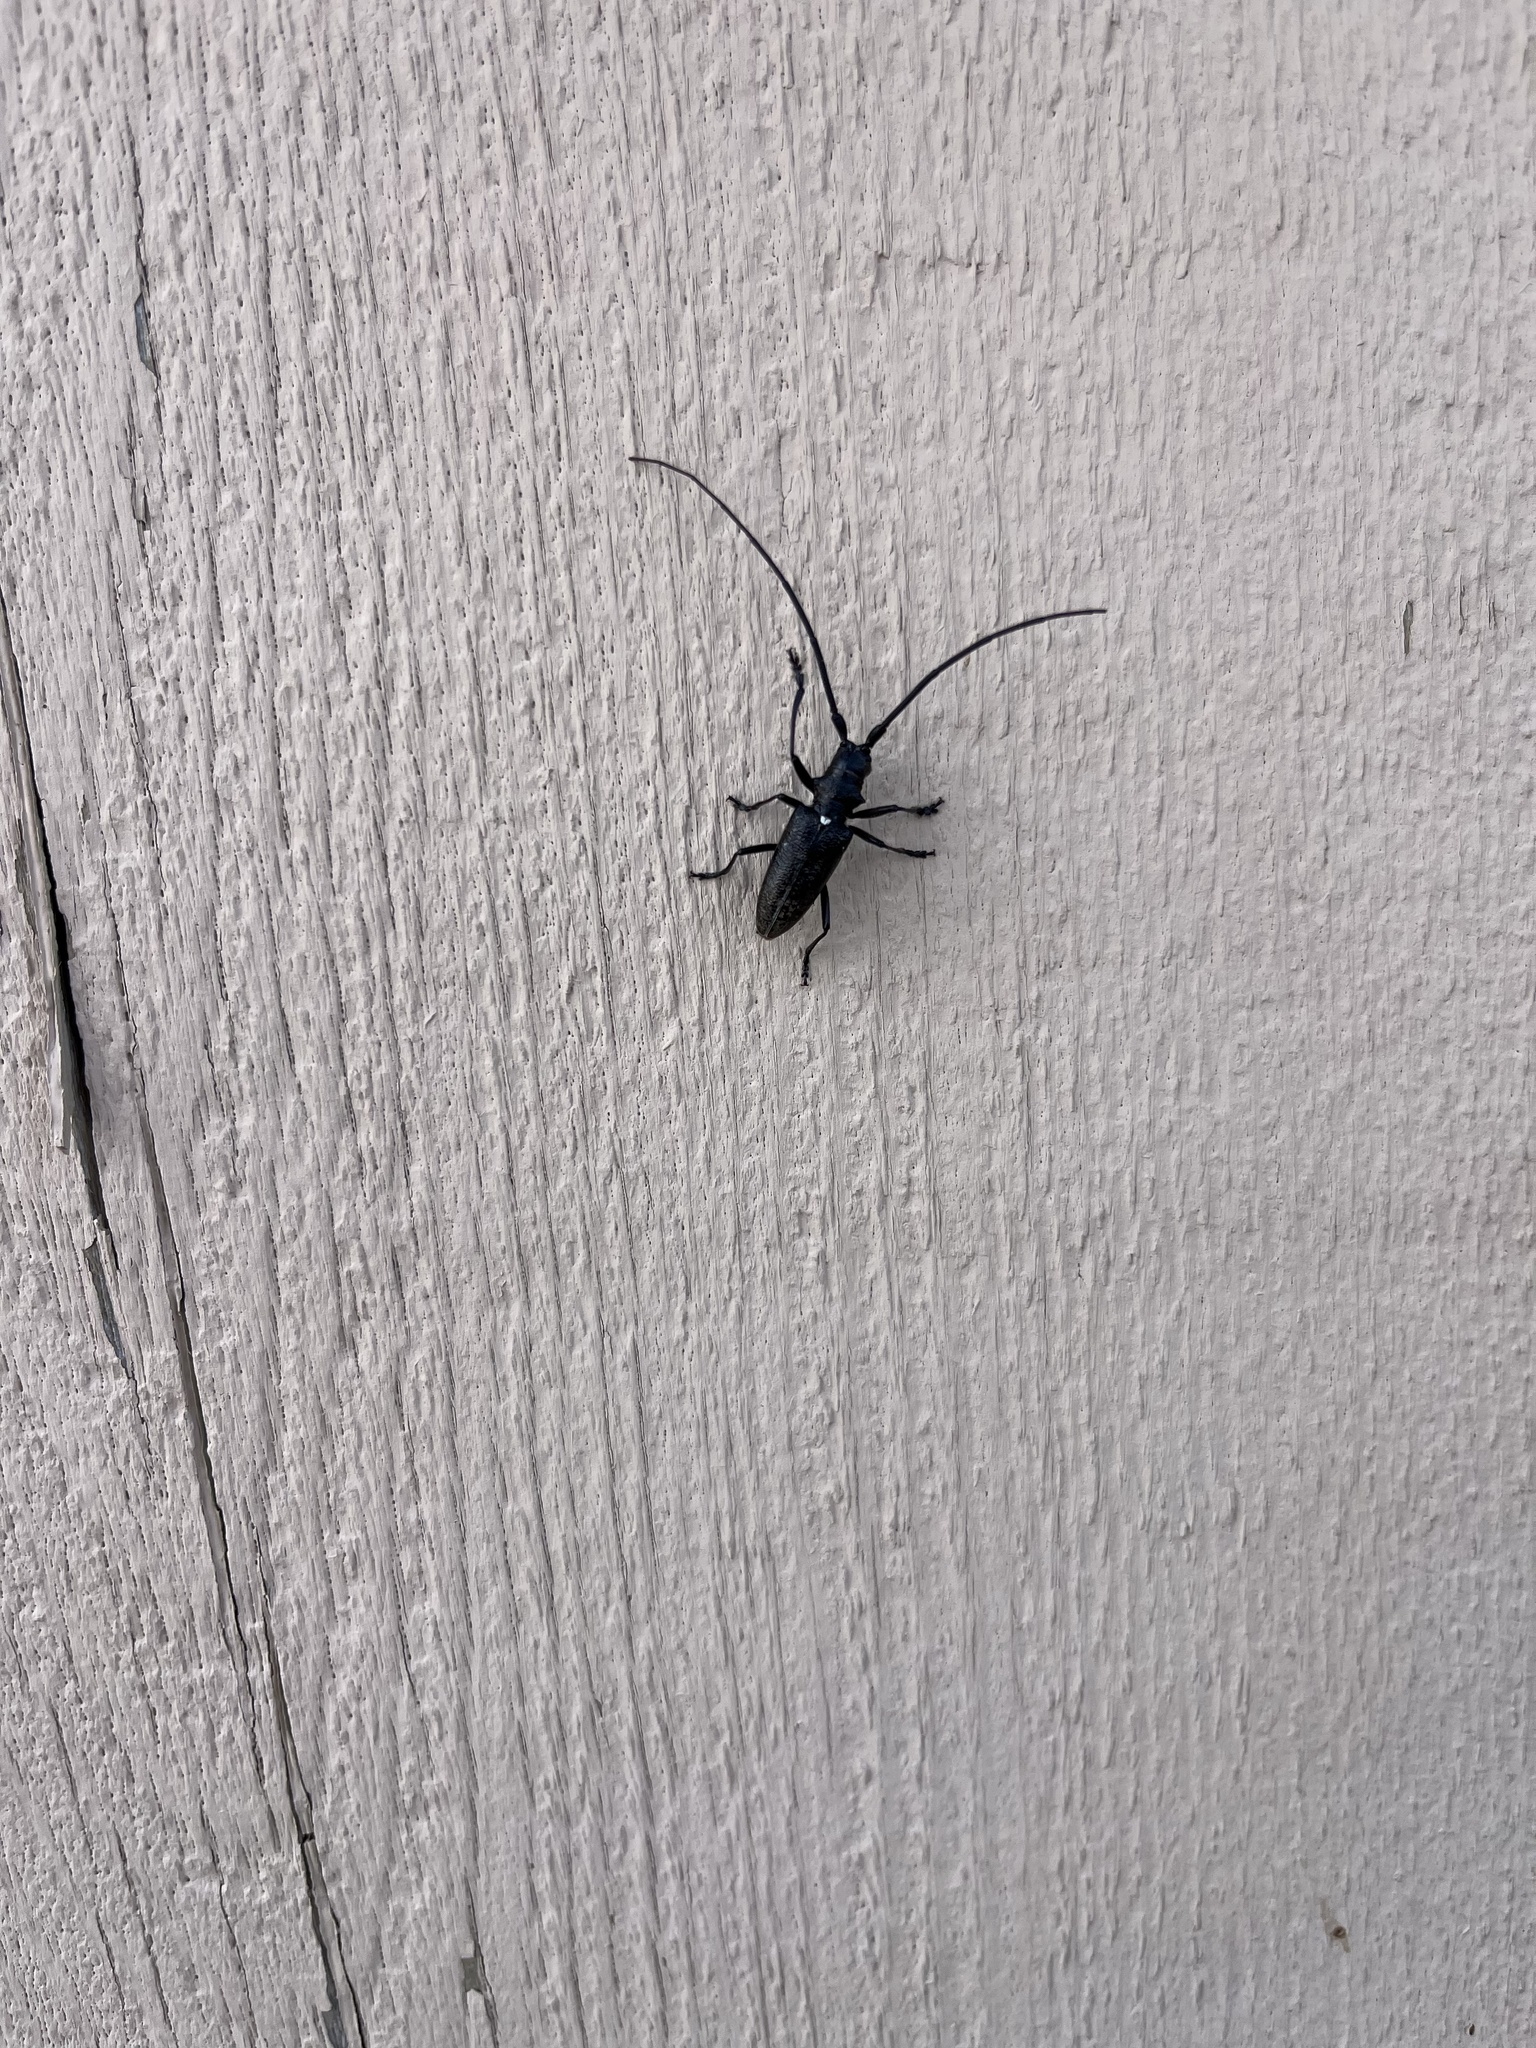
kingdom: Animalia
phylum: Arthropoda
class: Insecta
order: Coleoptera
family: Cerambycidae
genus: Monochamus
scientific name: Monochamus scutellatus
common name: White-spotted sawyer beetle
